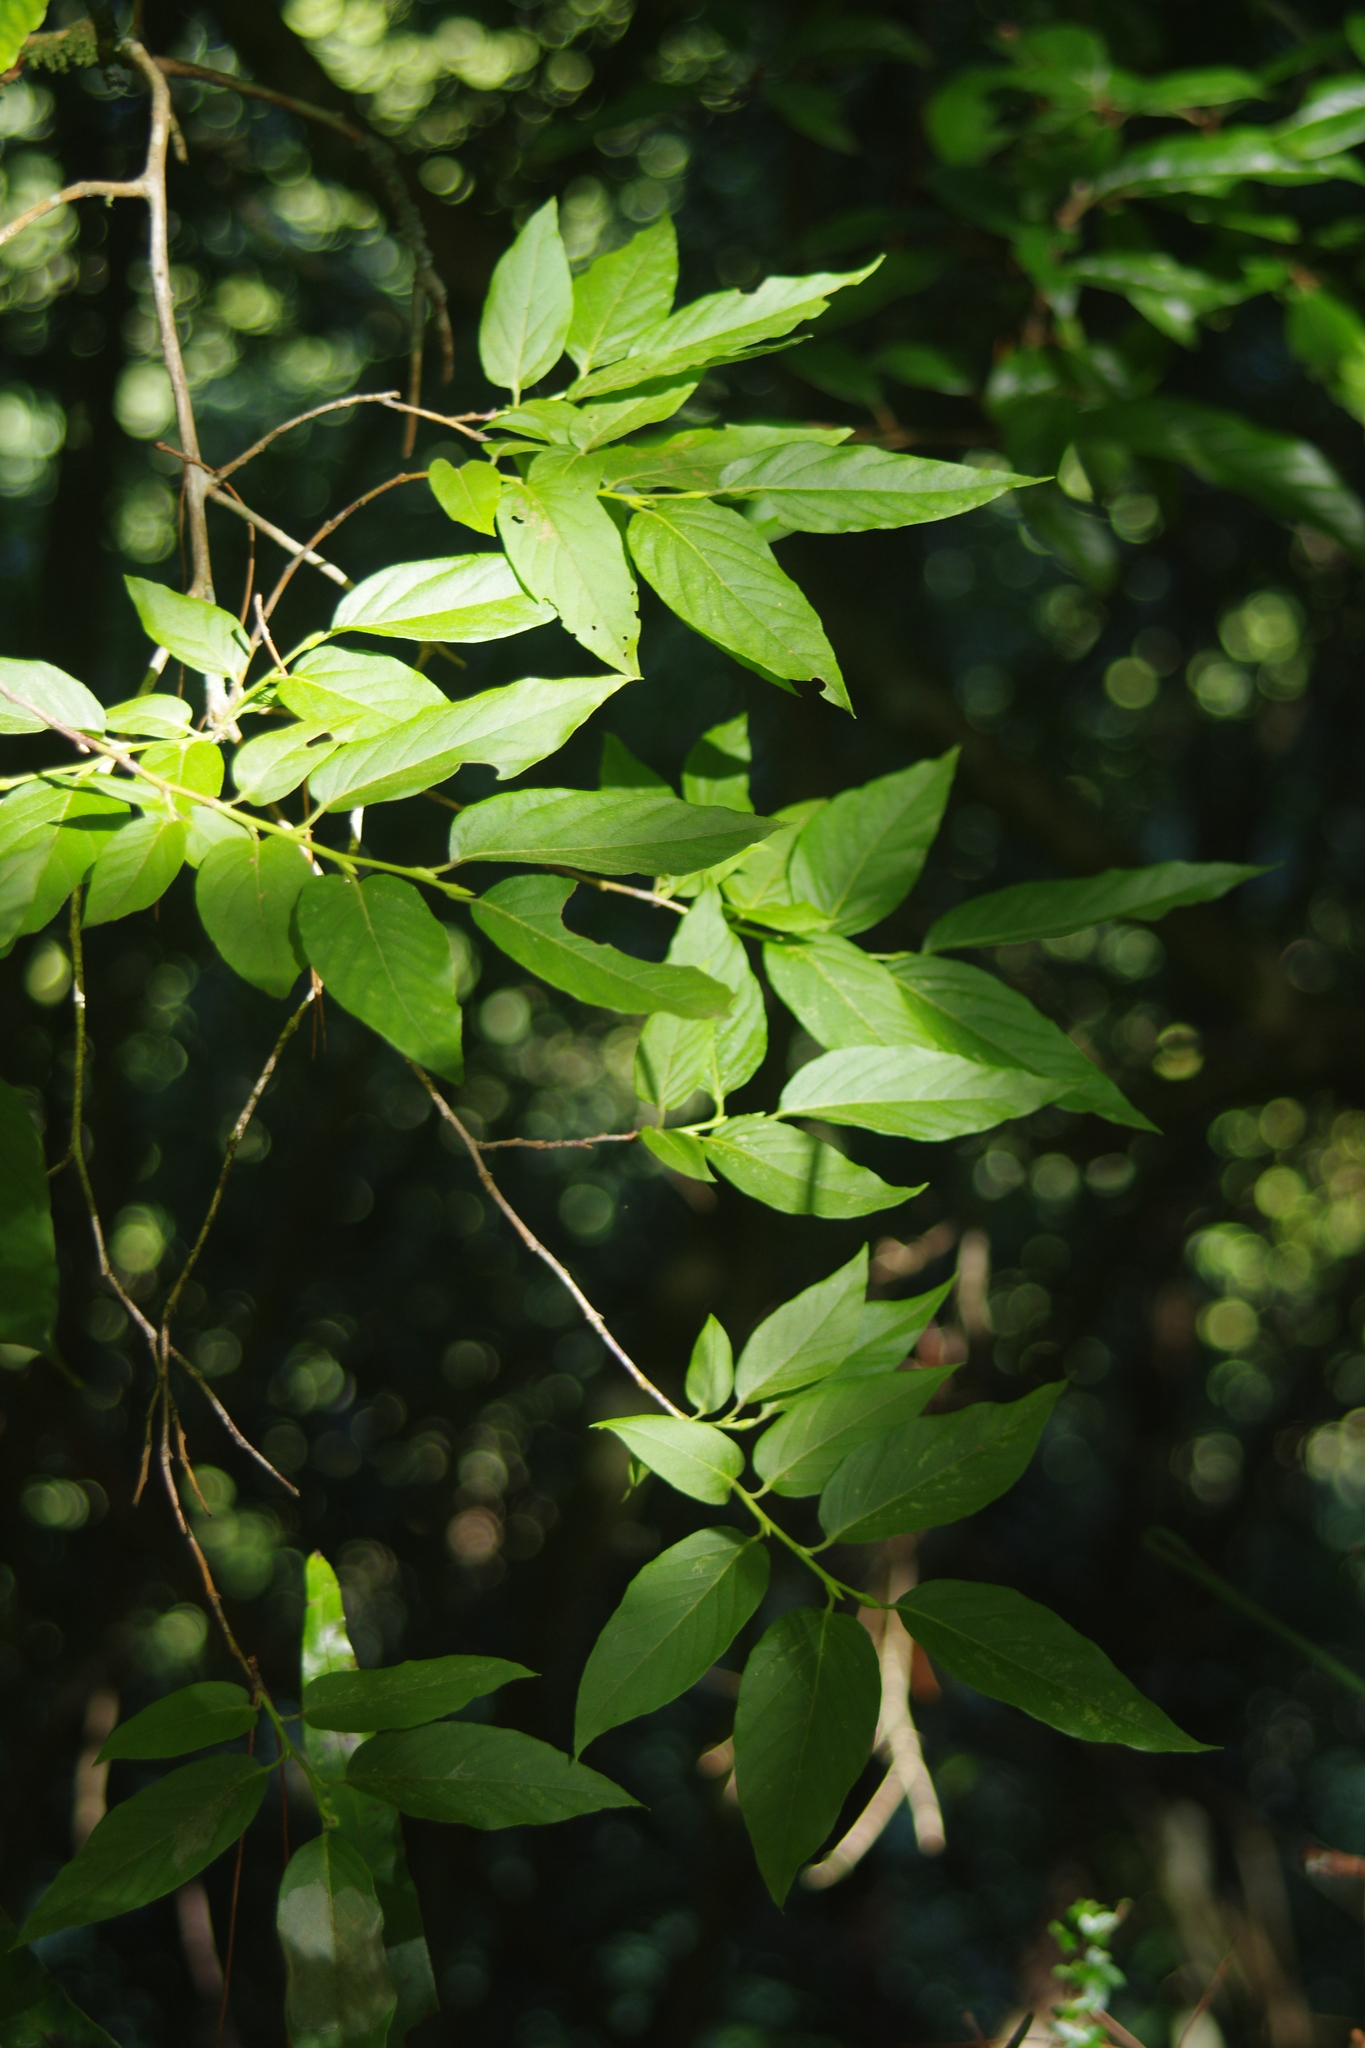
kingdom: Plantae
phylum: Tracheophyta
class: Magnoliopsida
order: Ericales
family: Ericaceae
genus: Lyonia
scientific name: Lyonia ovalifolia
